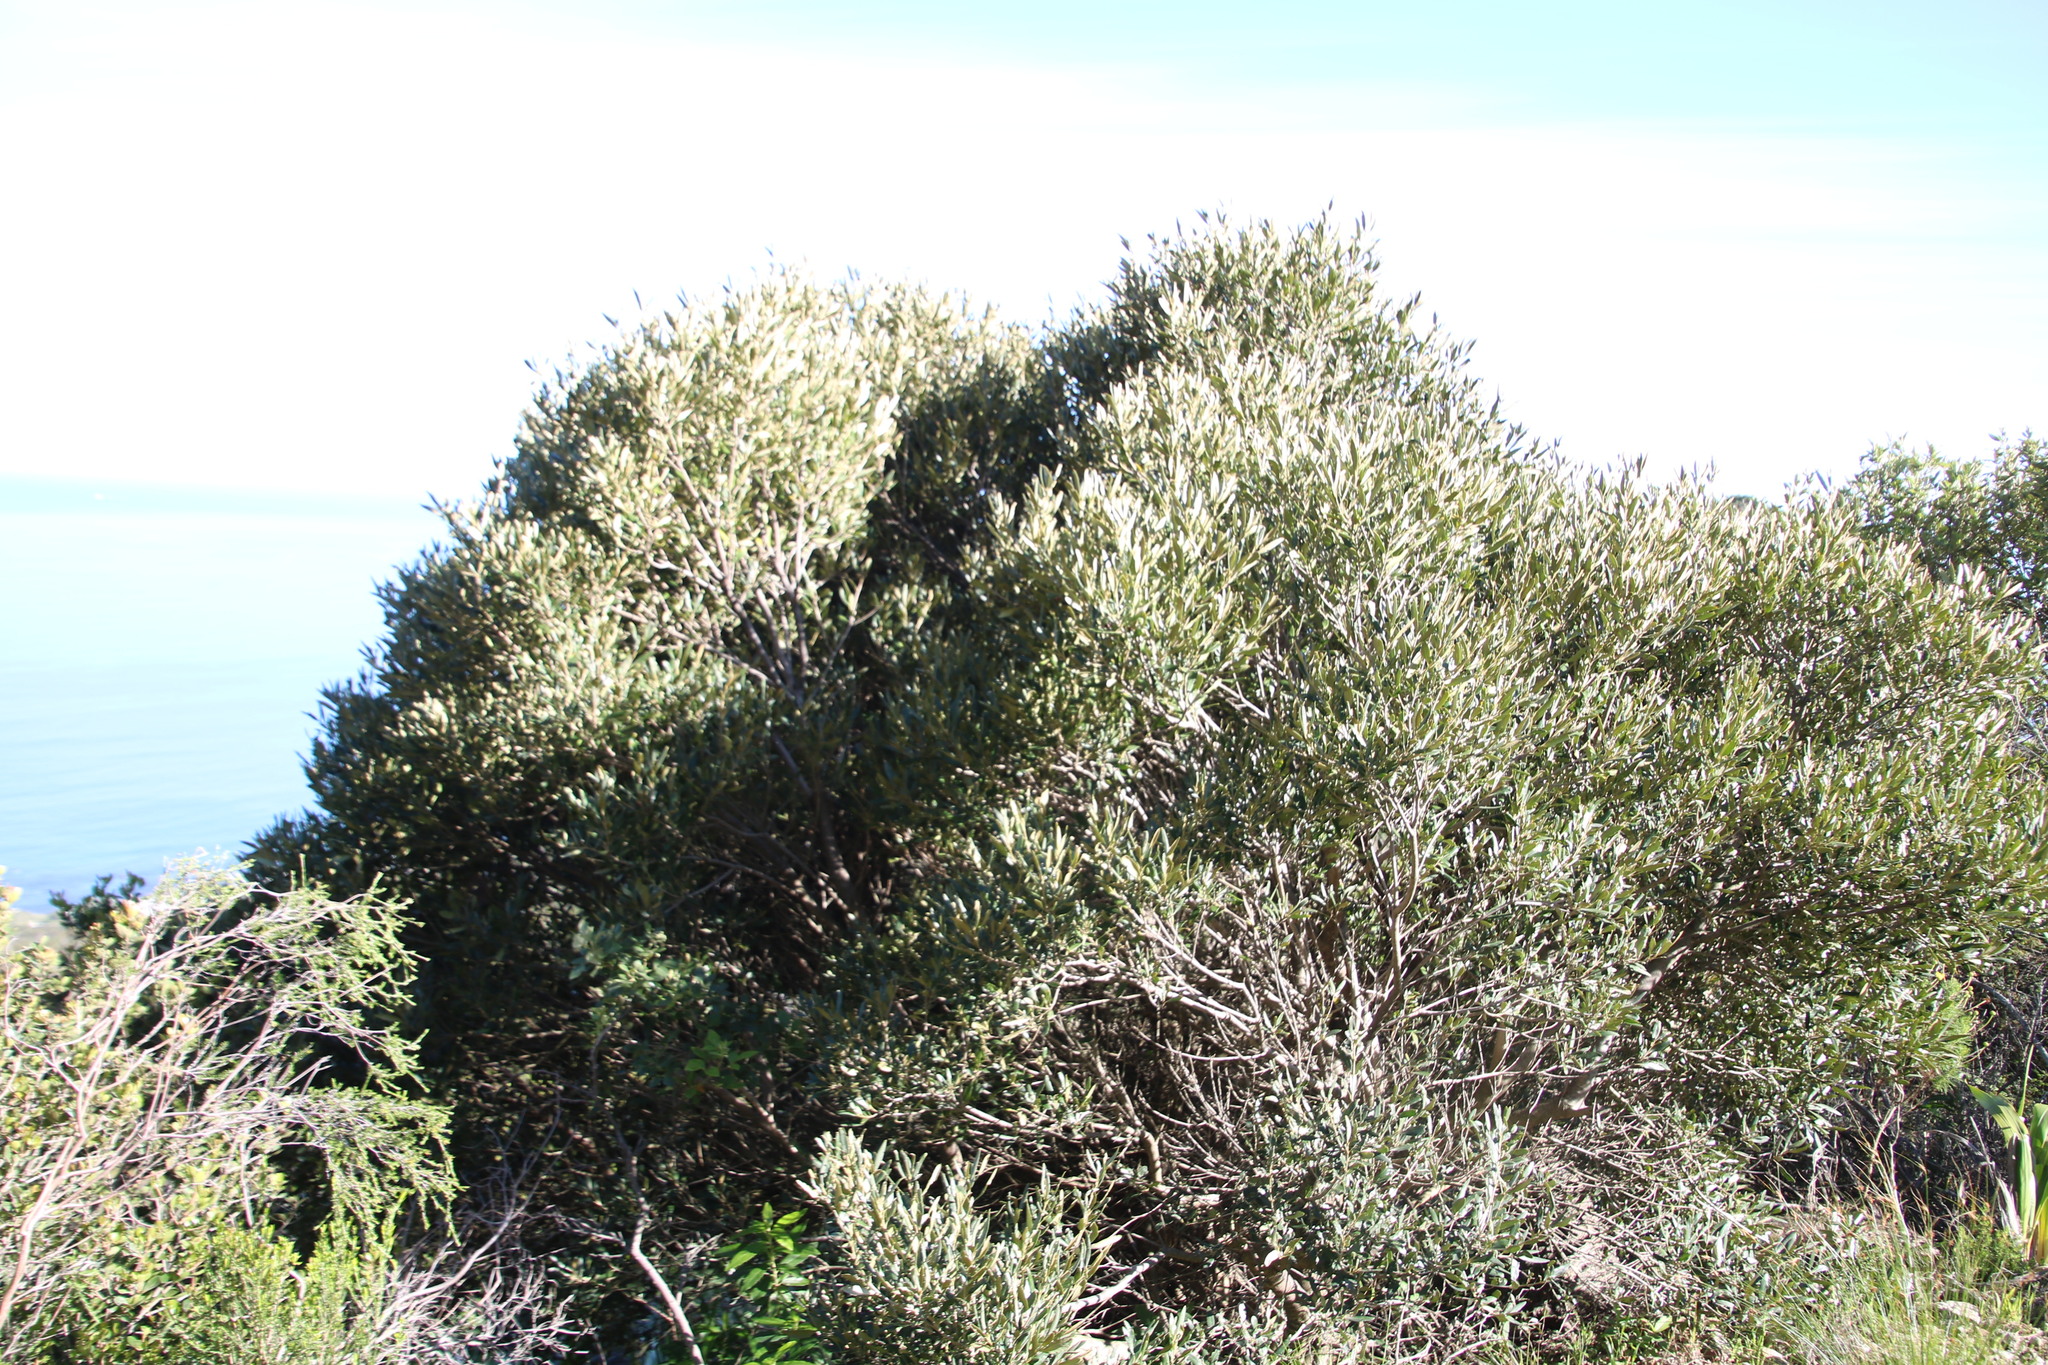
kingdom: Plantae
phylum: Tracheophyta
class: Magnoliopsida
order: Lamiales
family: Oleaceae
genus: Olea
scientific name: Olea europaea
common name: Olive
